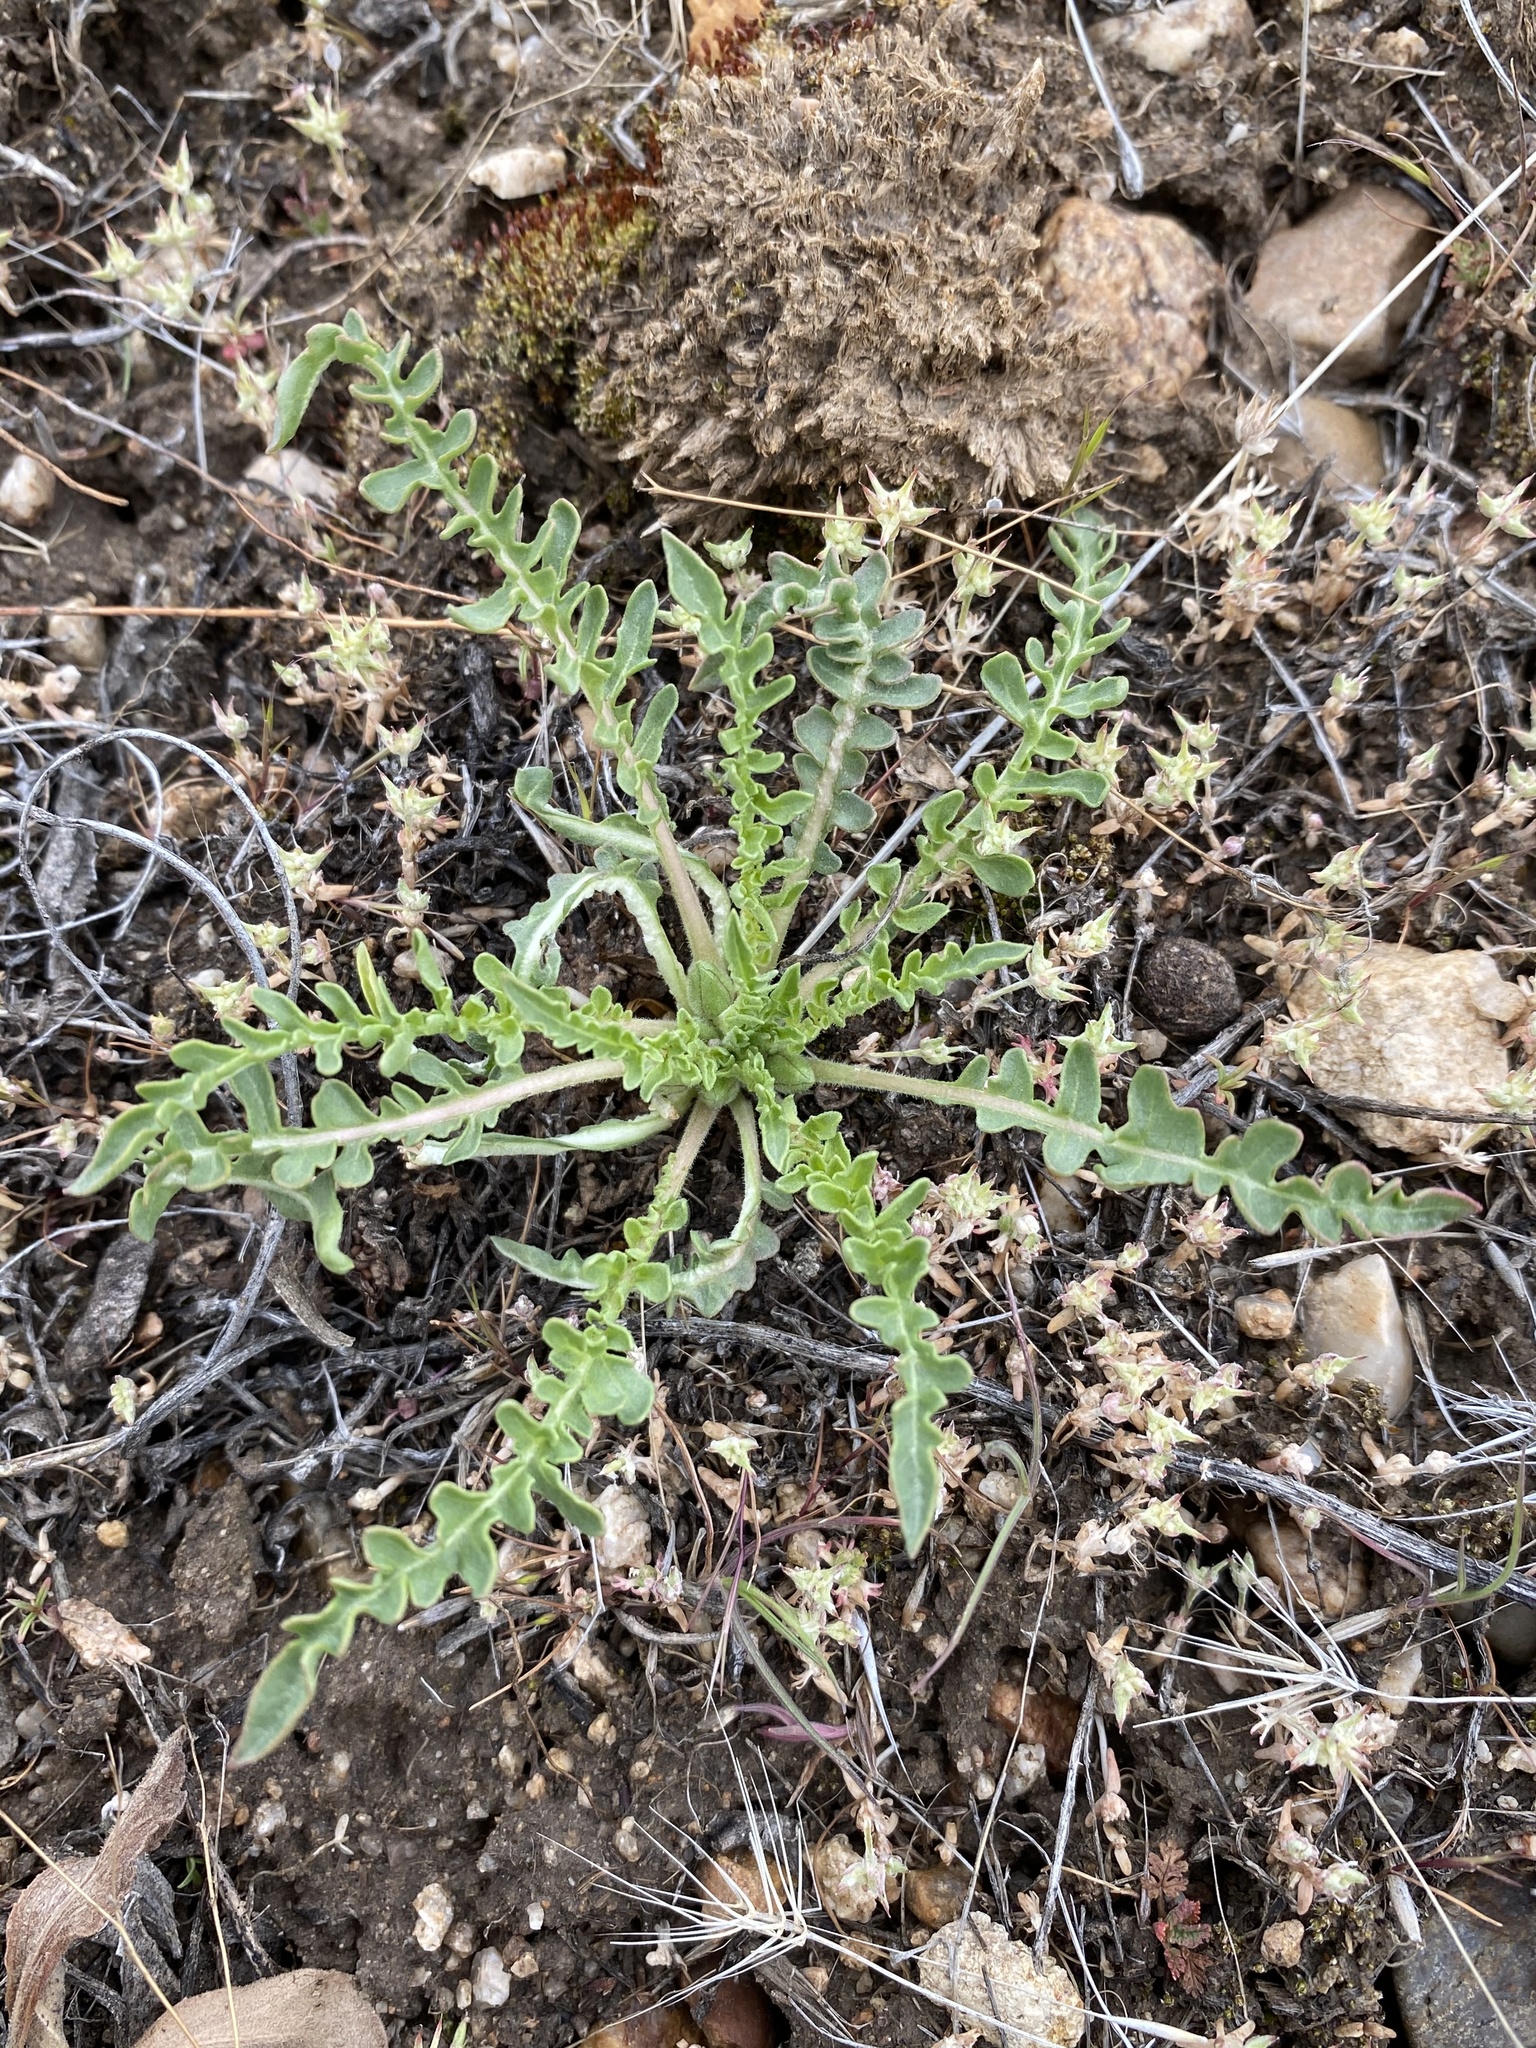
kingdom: Plantae
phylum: Tracheophyta
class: Magnoliopsida
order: Myrtales
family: Onagraceae
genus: Taraxia
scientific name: Taraxia tanacetifolia
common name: Tansyleaf evening primrose
